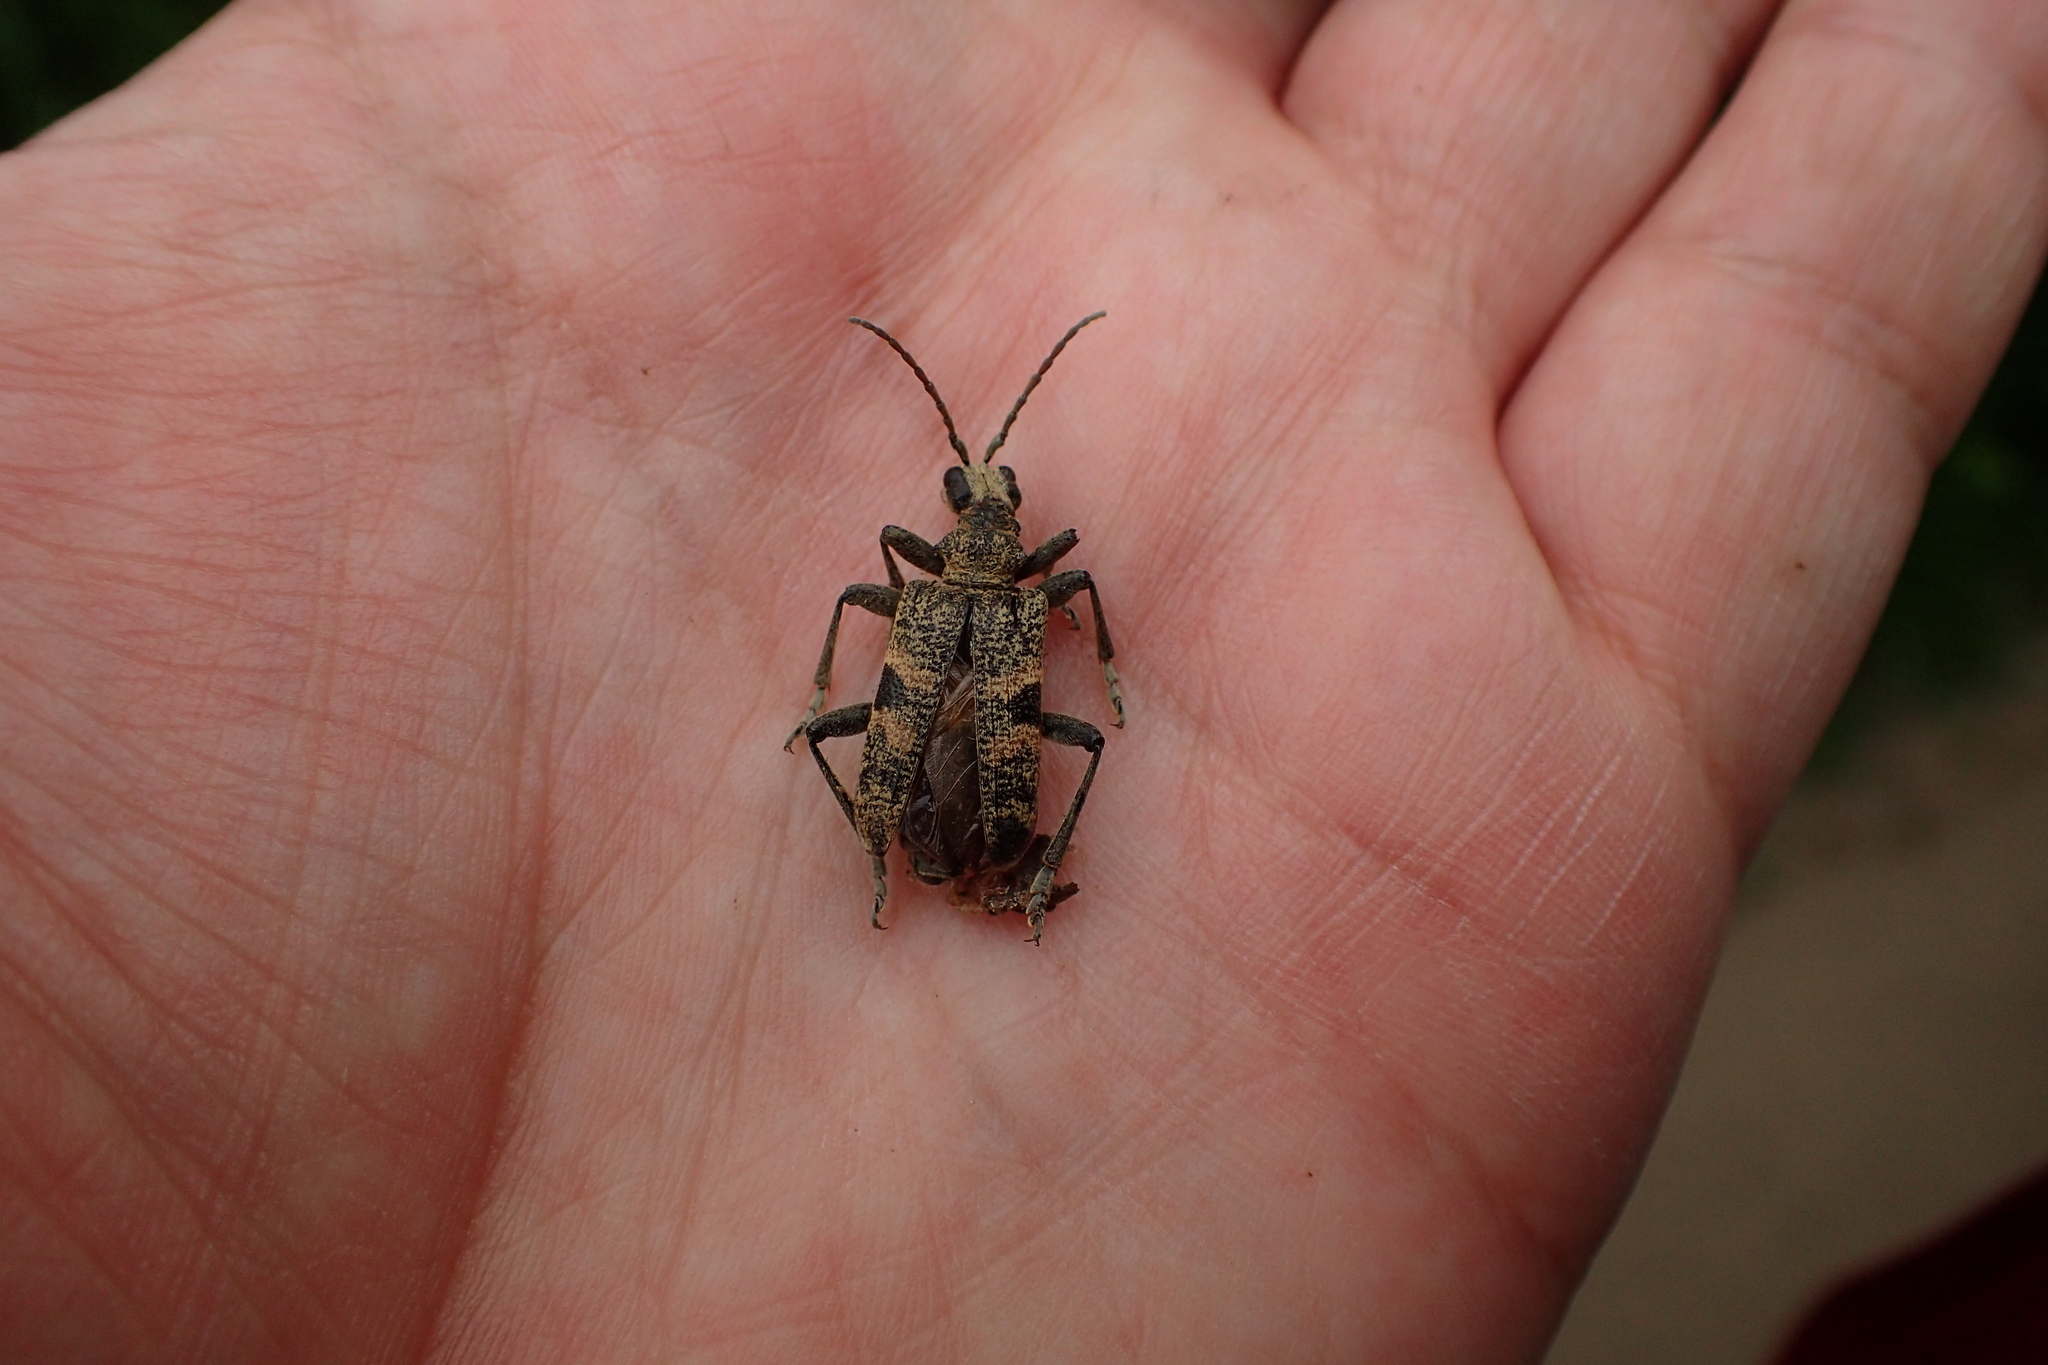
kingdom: Animalia
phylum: Arthropoda
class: Insecta
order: Coleoptera
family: Cerambycidae
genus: Rhagium
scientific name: Rhagium mordax
